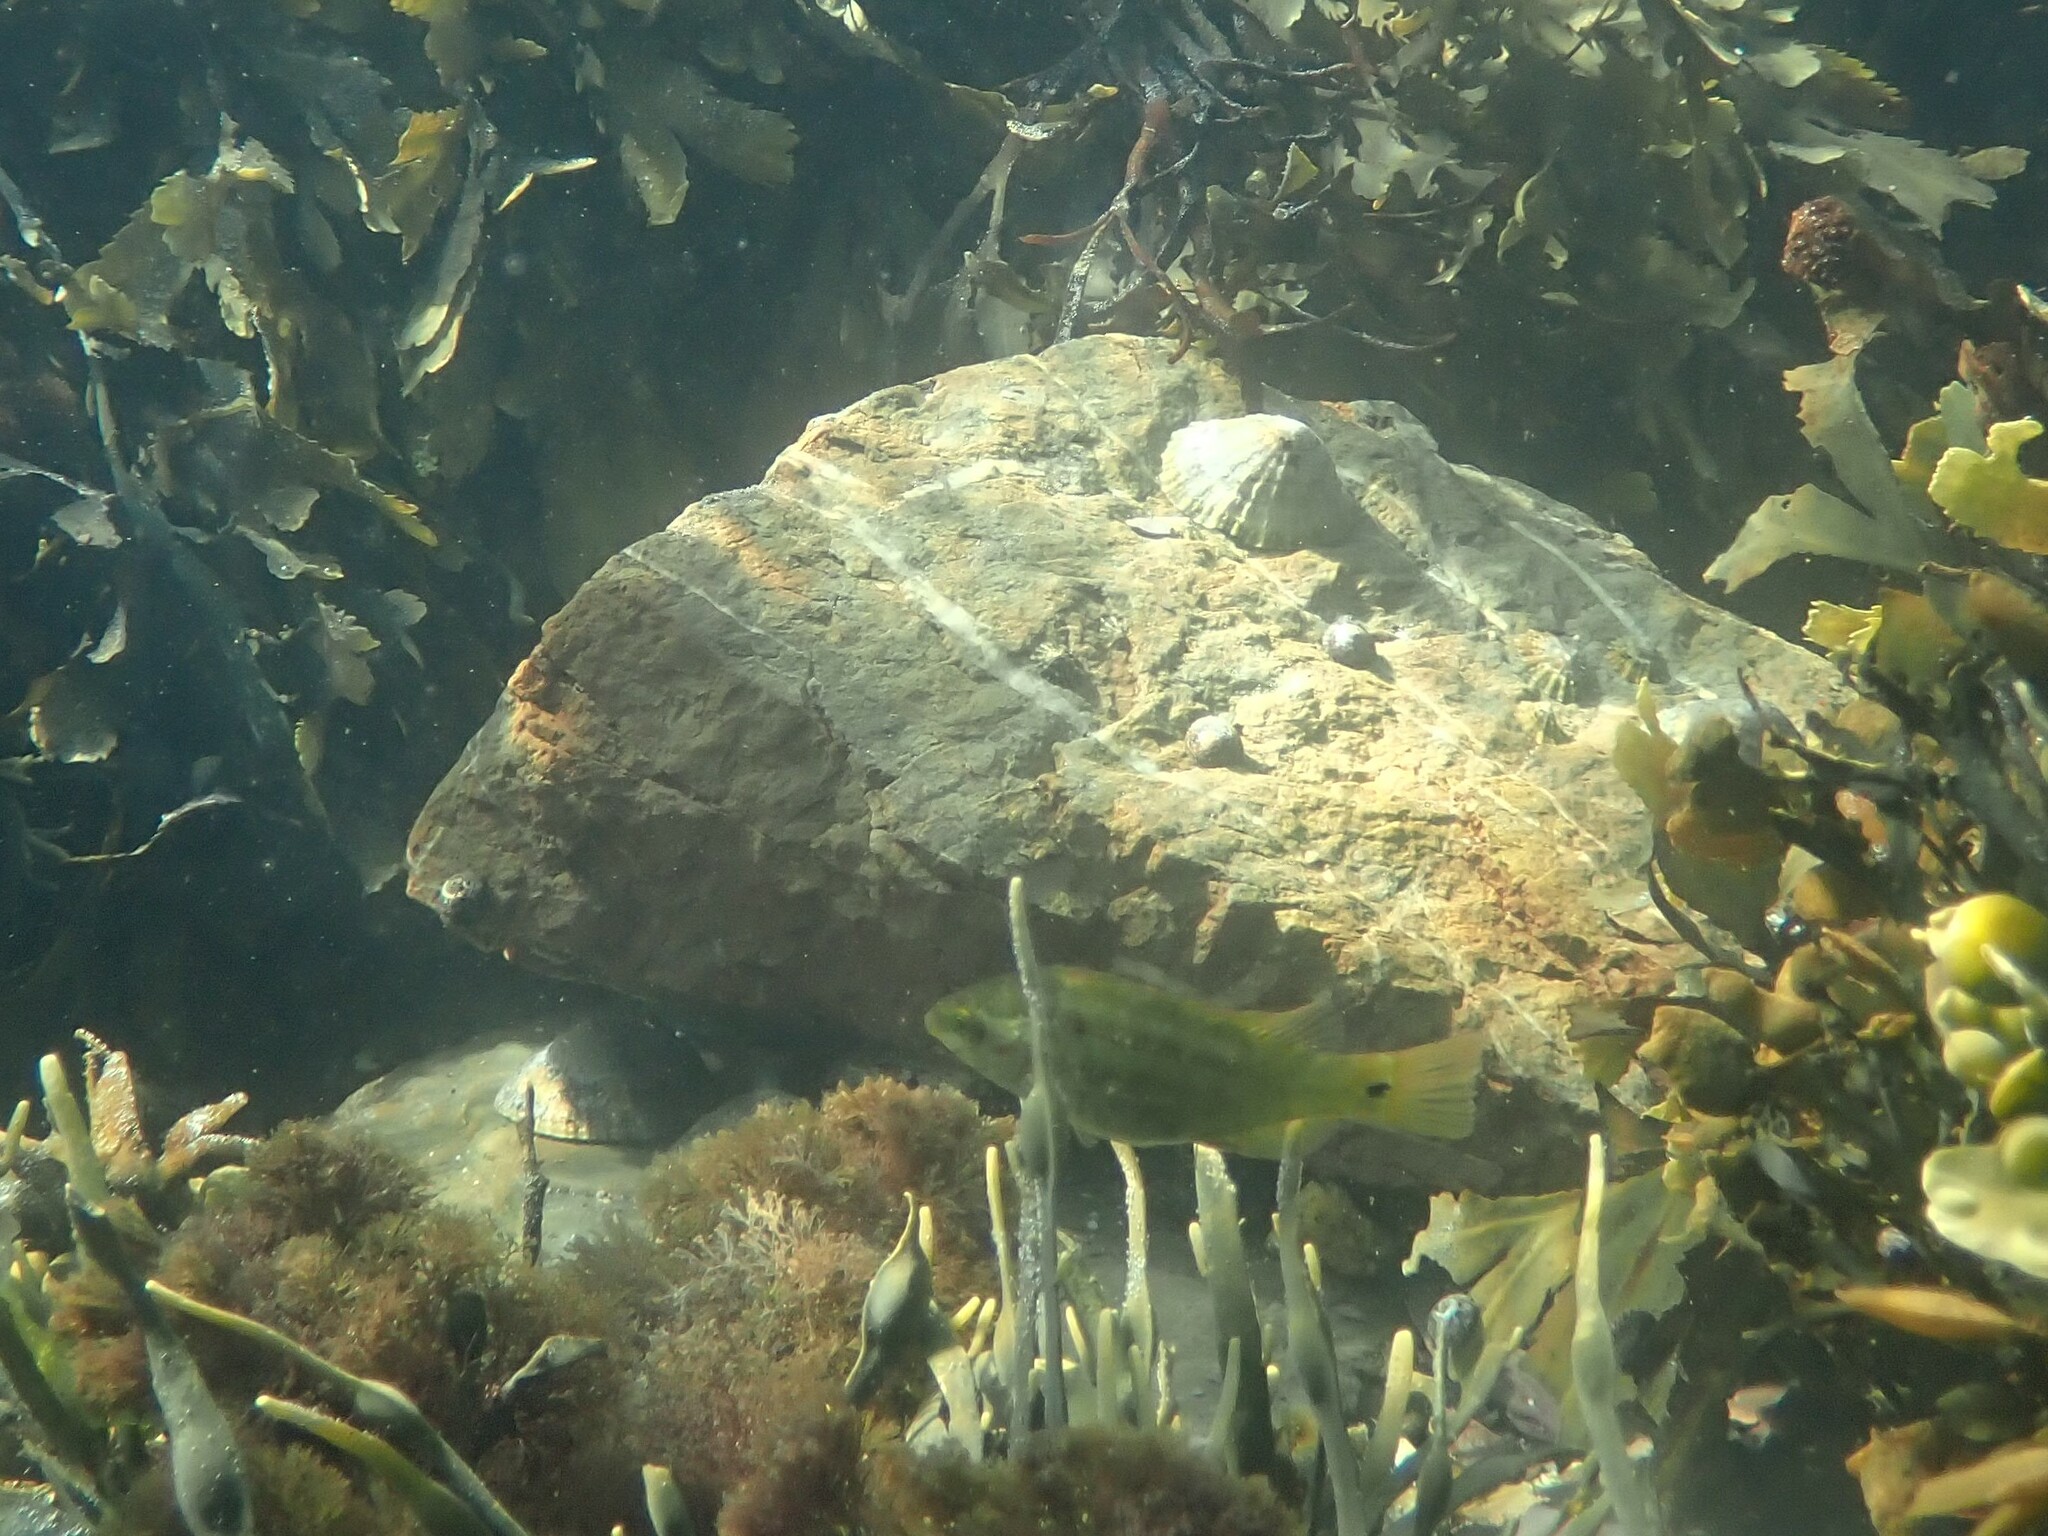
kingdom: Animalia
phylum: Chordata
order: Perciformes
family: Labridae
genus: Symphodus
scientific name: Symphodus melops
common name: Corkwing
